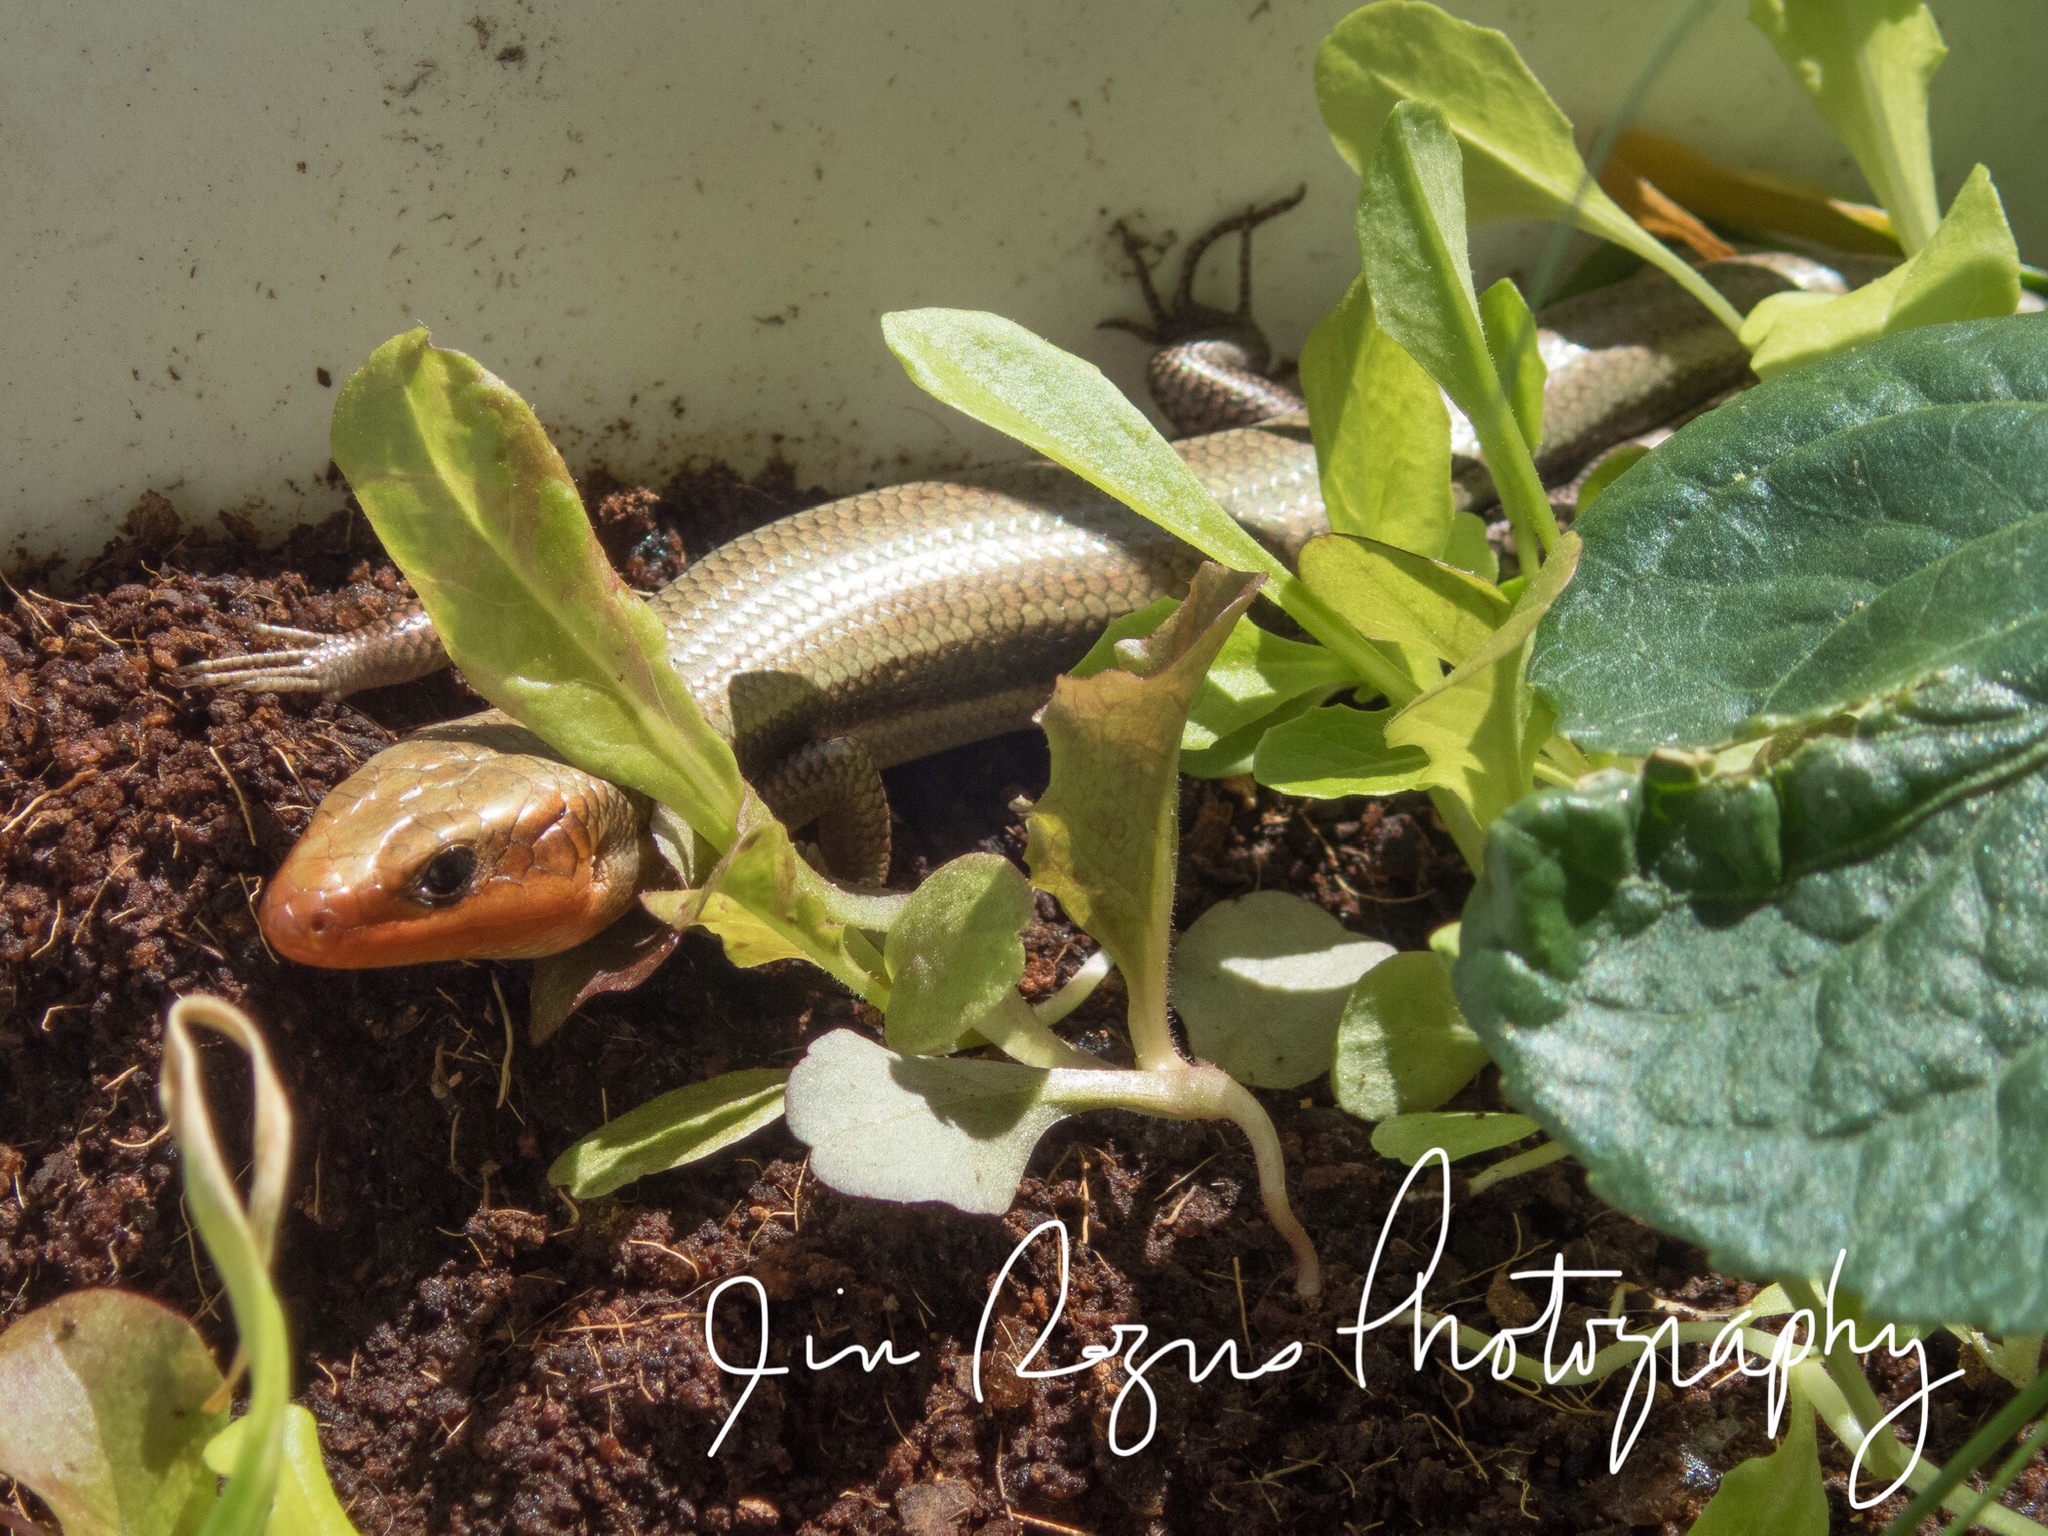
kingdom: Animalia
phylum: Chordata
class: Squamata
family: Scincidae
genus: Plestiodon
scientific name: Plestiodon fasciatus
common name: Five-lined skink
